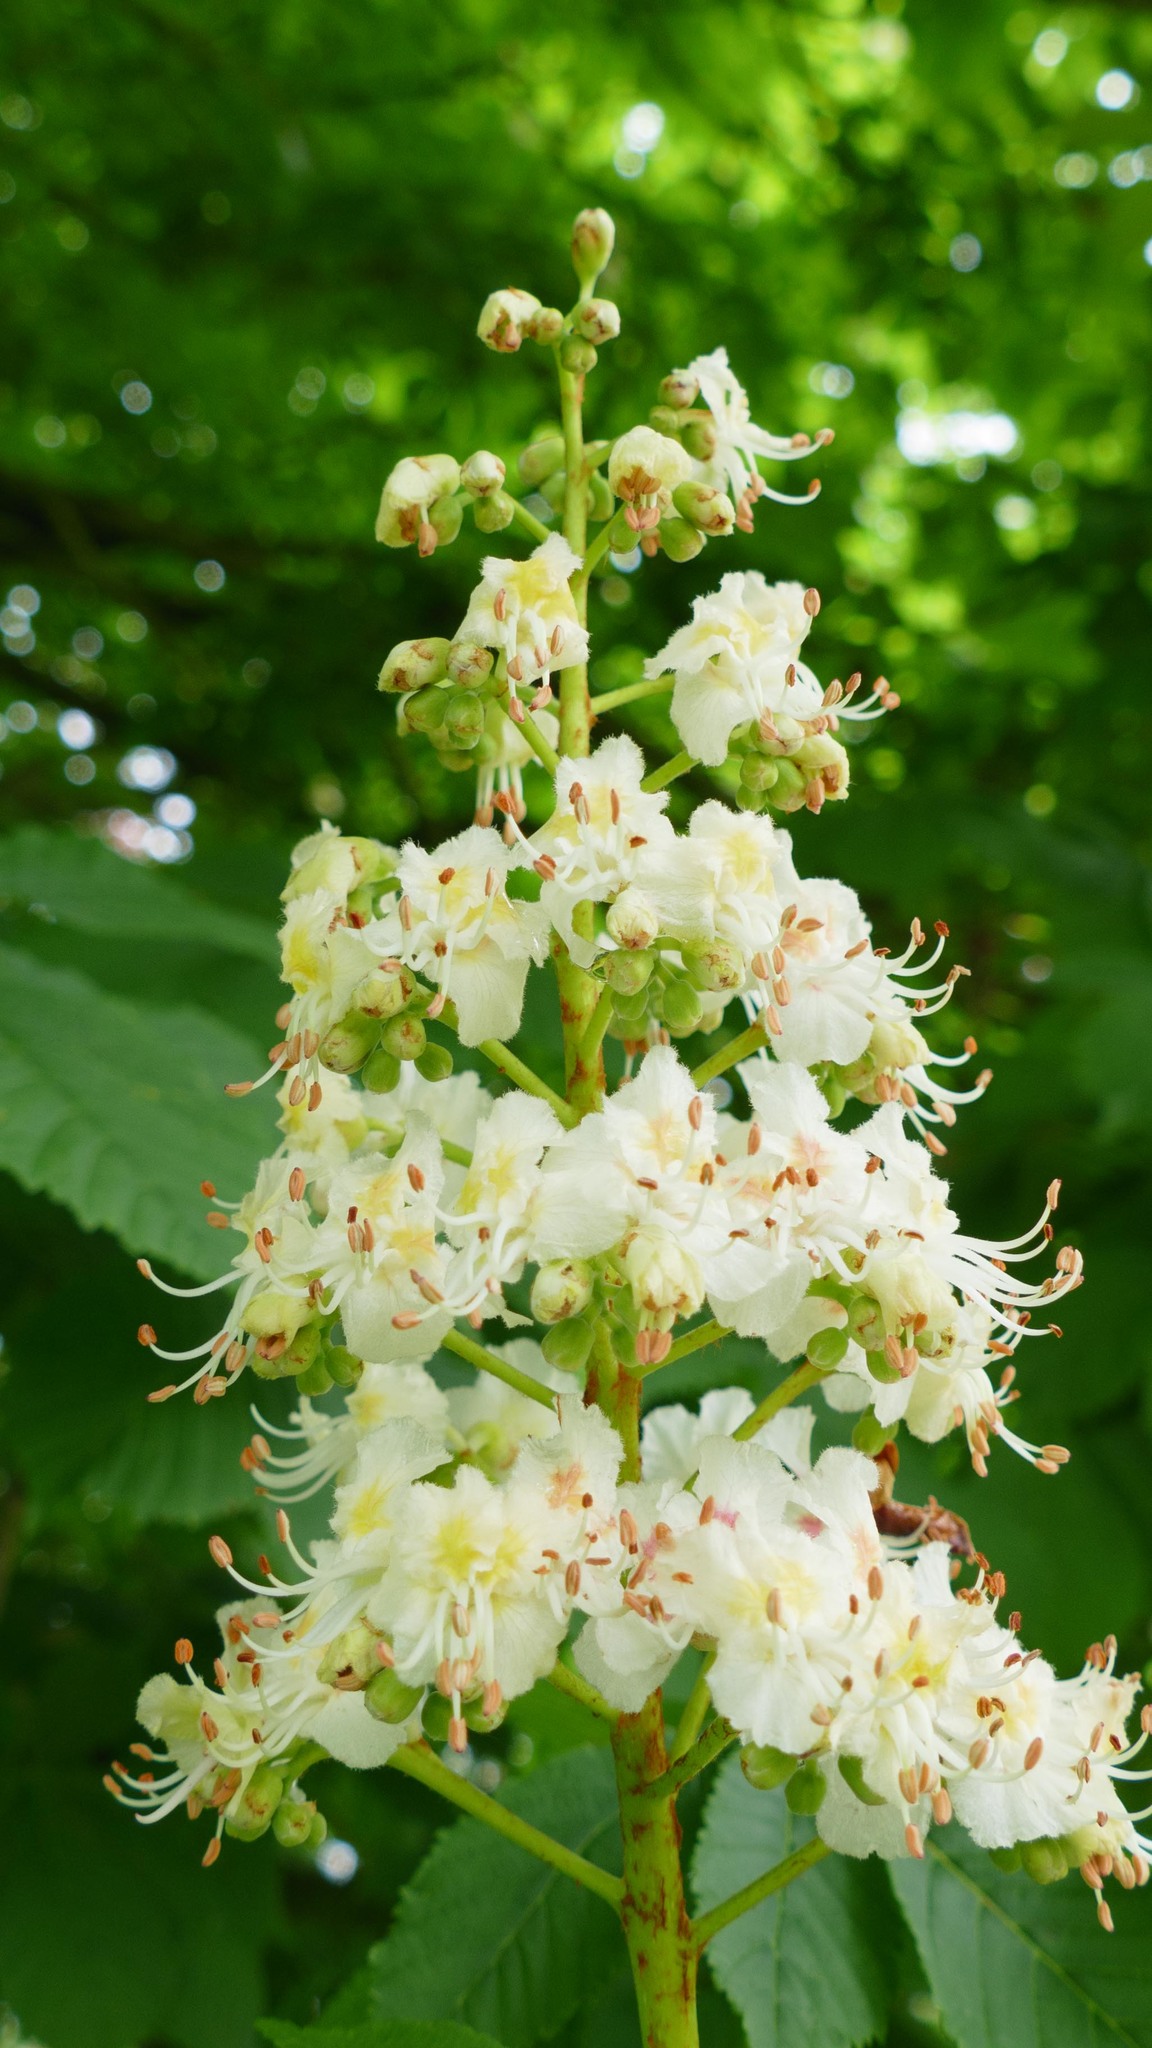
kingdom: Plantae
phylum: Tracheophyta
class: Magnoliopsida
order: Sapindales
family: Sapindaceae
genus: Aesculus
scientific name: Aesculus hippocastanum
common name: Horse-chestnut
